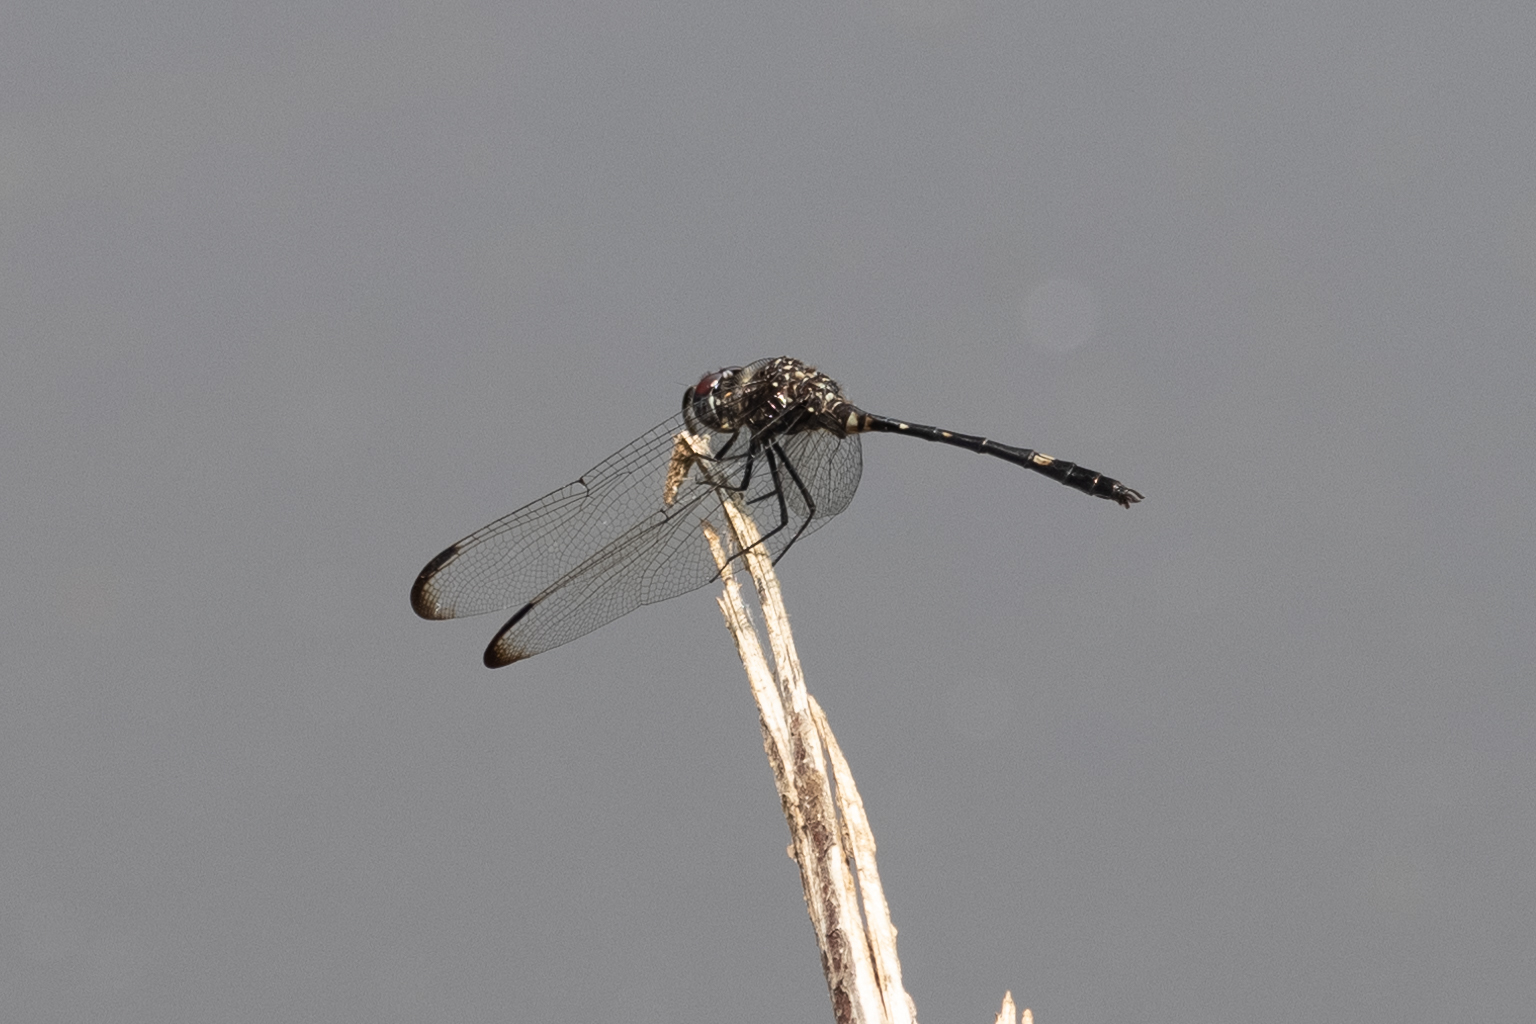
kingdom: Animalia
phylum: Arthropoda
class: Insecta
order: Odonata
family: Libellulidae
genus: Dythemis
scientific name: Dythemis velox
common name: Swift setwing
